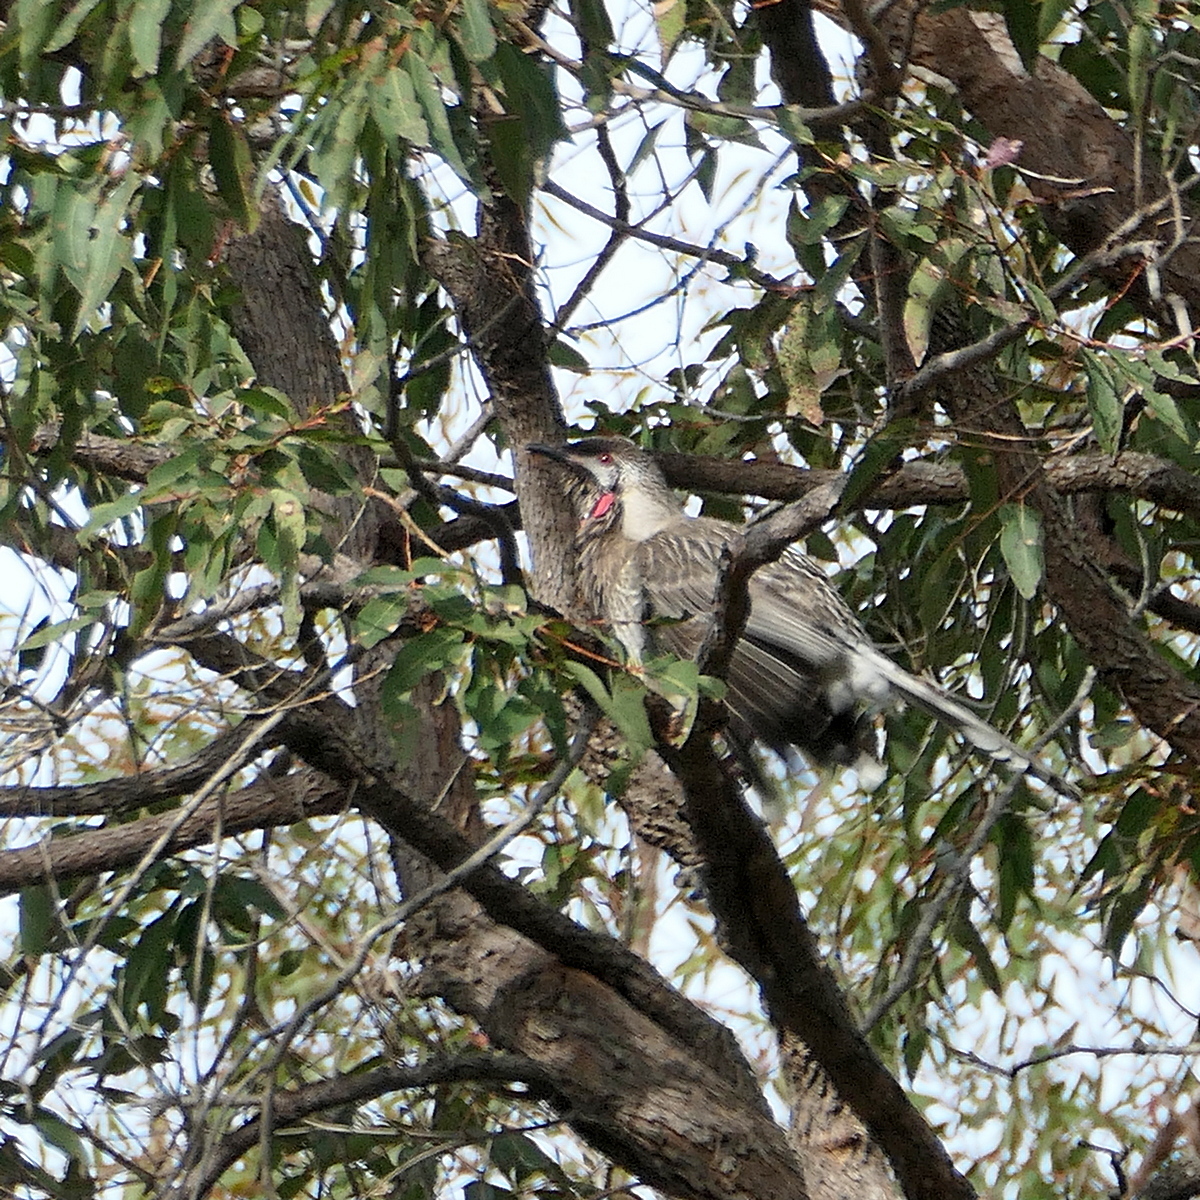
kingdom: Animalia
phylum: Chordata
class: Aves
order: Passeriformes
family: Meliphagidae
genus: Anthochaera
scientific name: Anthochaera carunculata
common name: Red wattlebird
